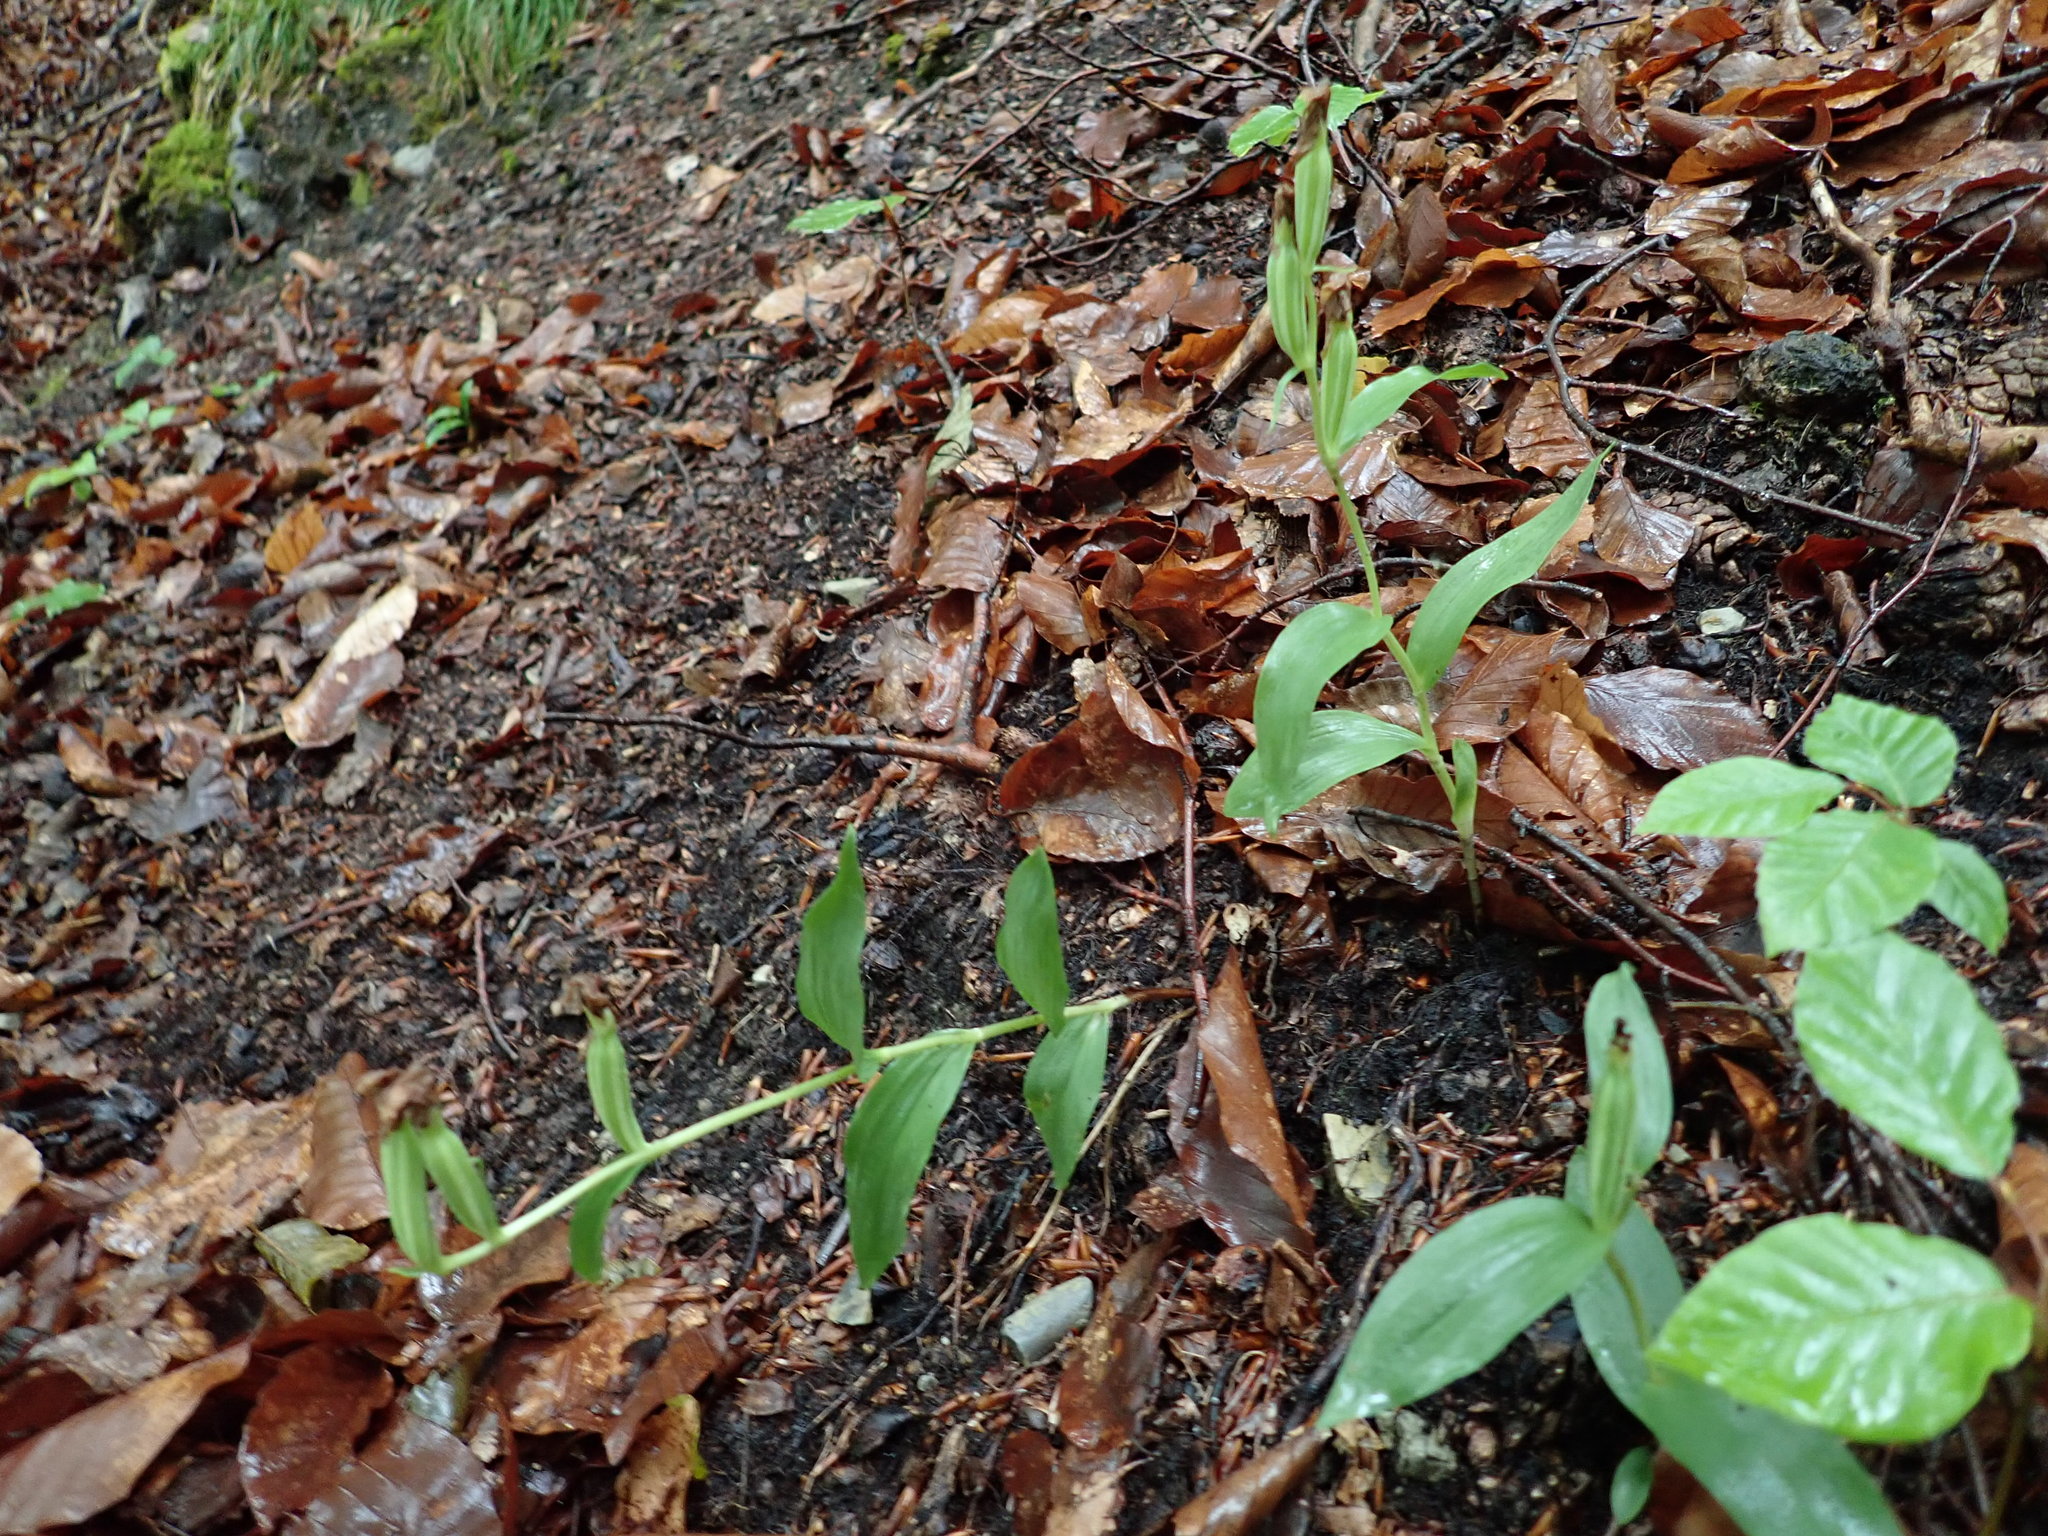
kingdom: Plantae
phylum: Tracheophyta
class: Liliopsida
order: Asparagales
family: Orchidaceae
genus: Cephalanthera
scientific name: Cephalanthera damasonium
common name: White helleborine
